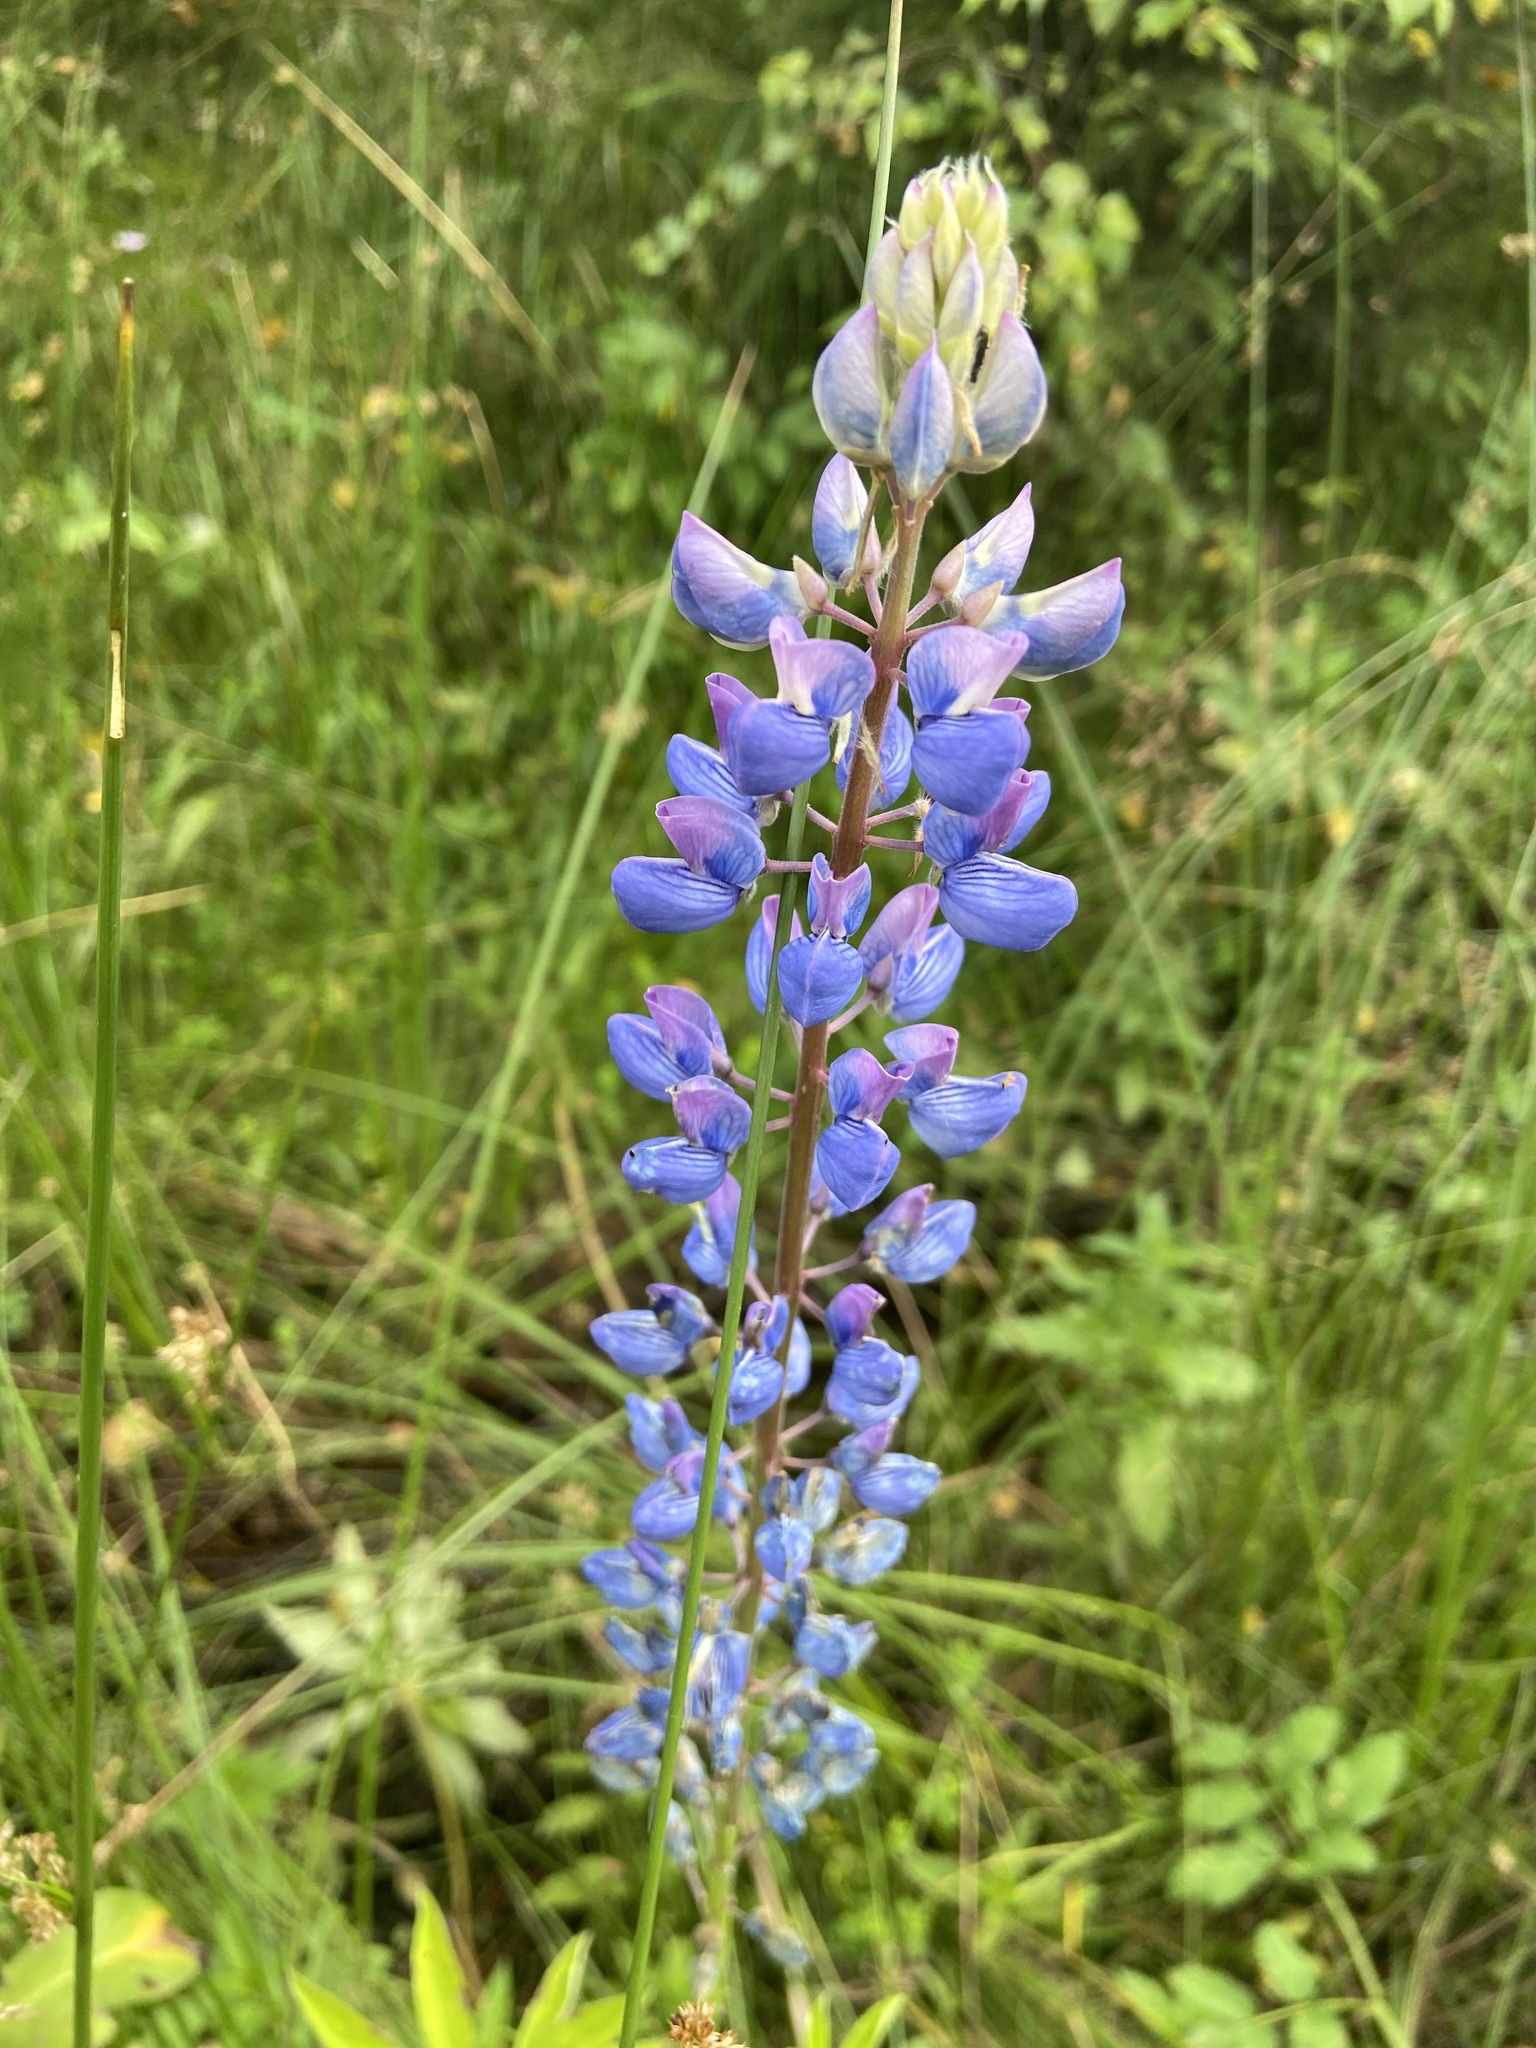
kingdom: Plantae
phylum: Tracheophyta
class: Magnoliopsida
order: Fabales
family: Fabaceae
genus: Lupinus
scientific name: Lupinus polyphyllus
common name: Garden lupin
